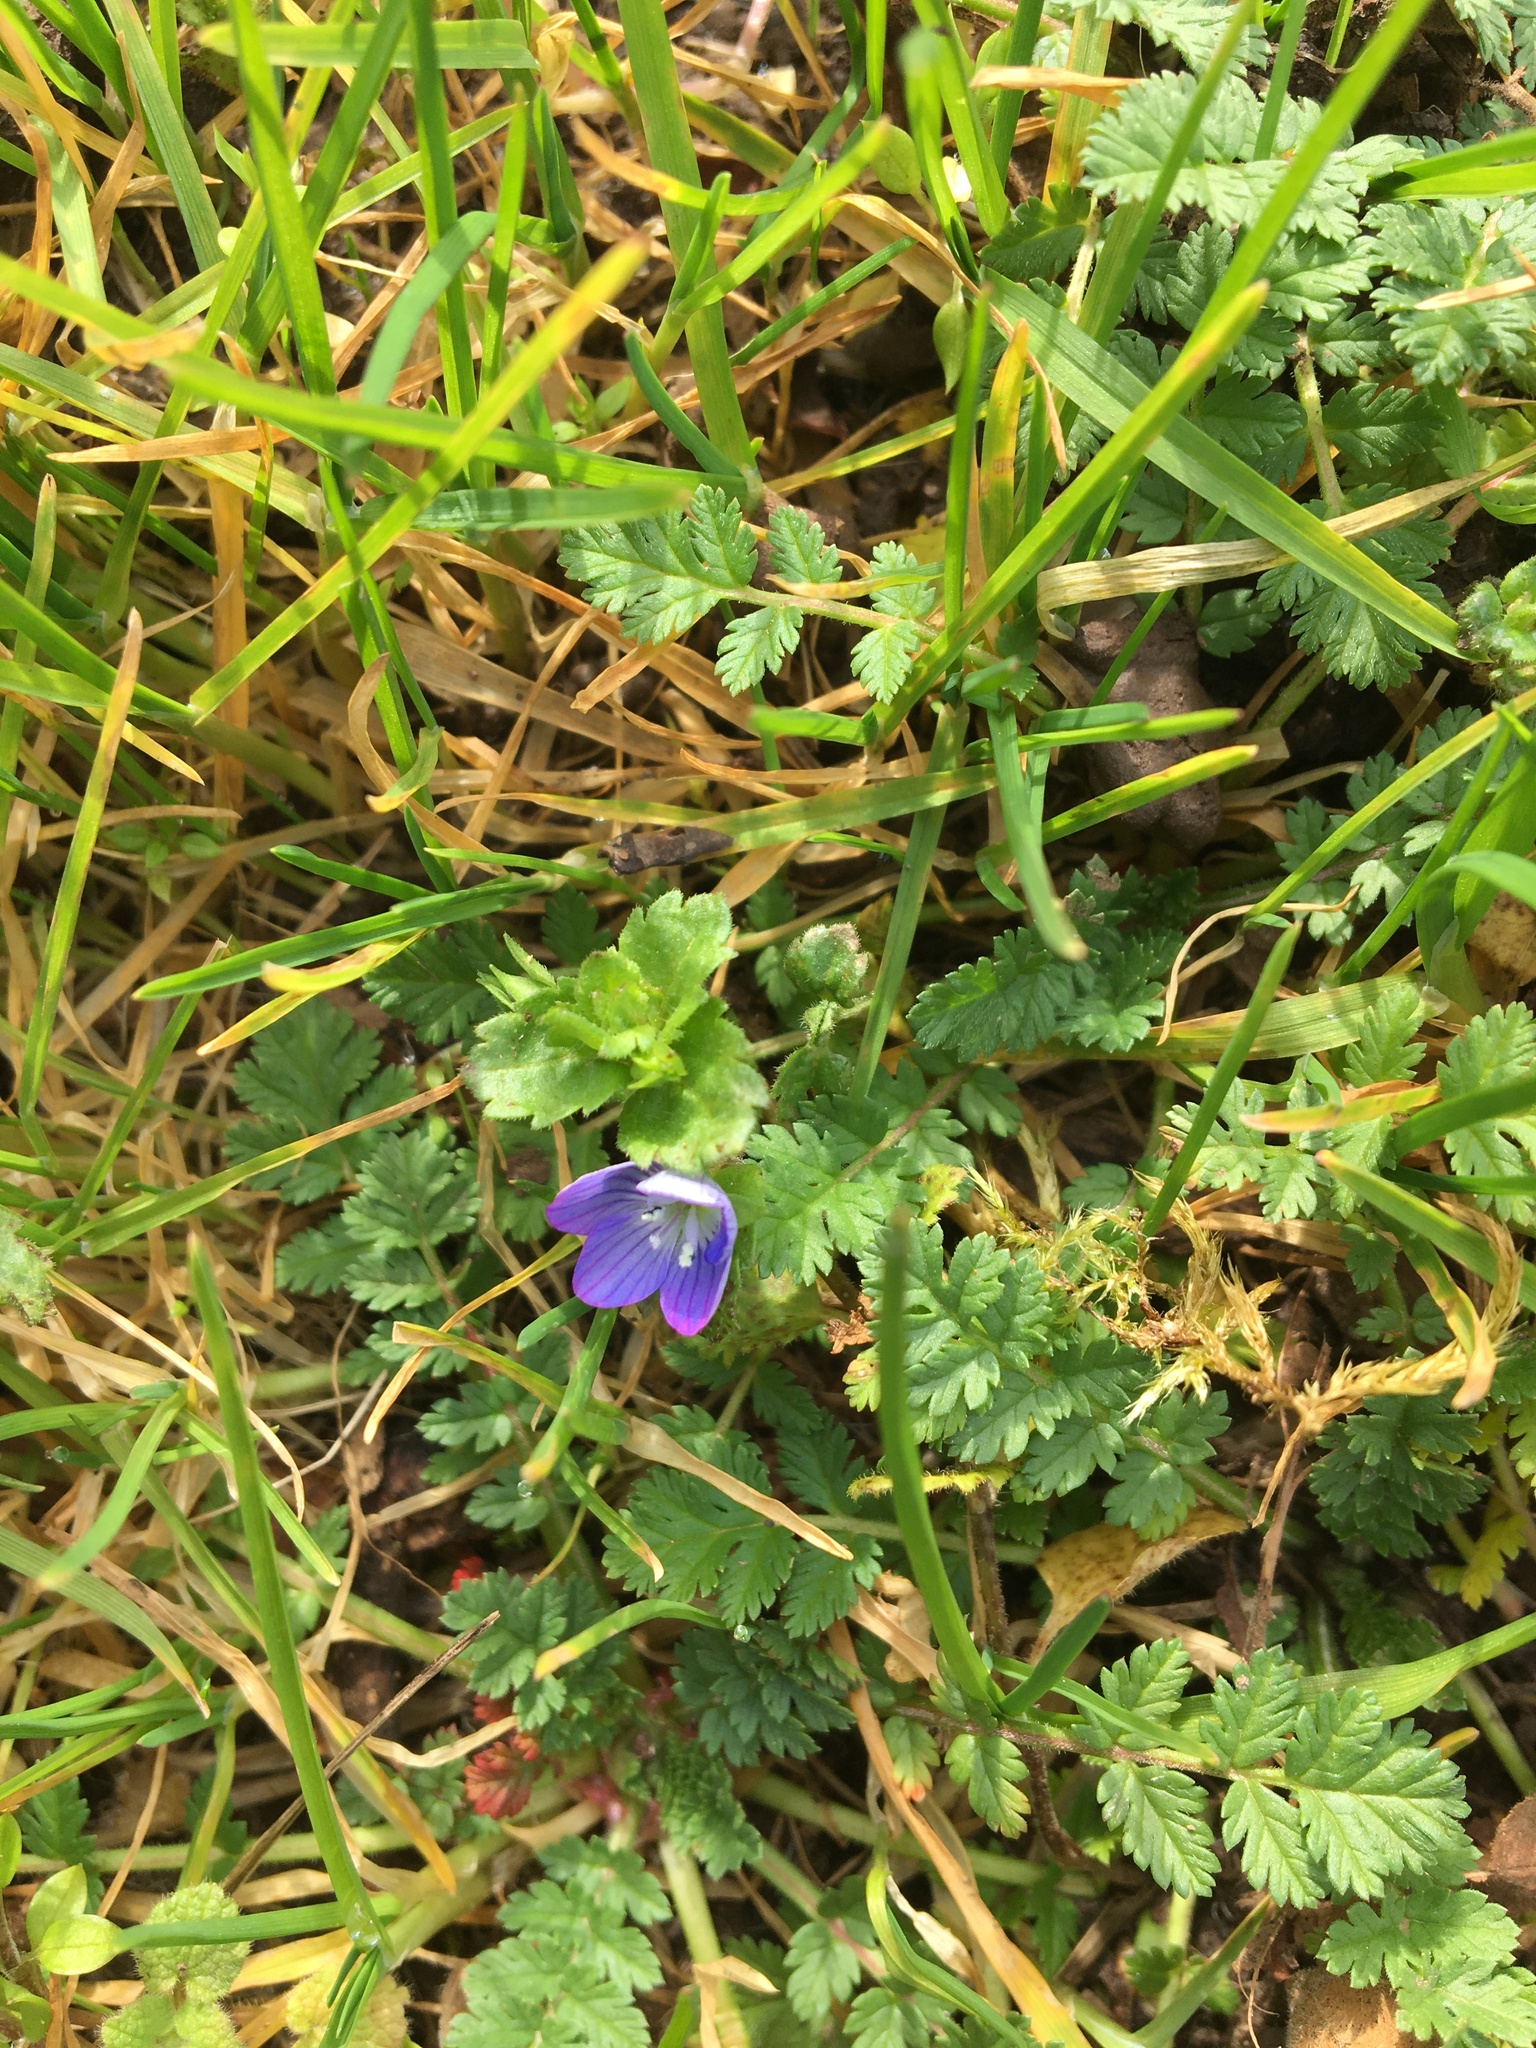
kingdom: Plantae
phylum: Tracheophyta
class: Magnoliopsida
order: Lamiales
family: Plantaginaceae
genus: Veronica
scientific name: Veronica persica
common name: Common field-speedwell
